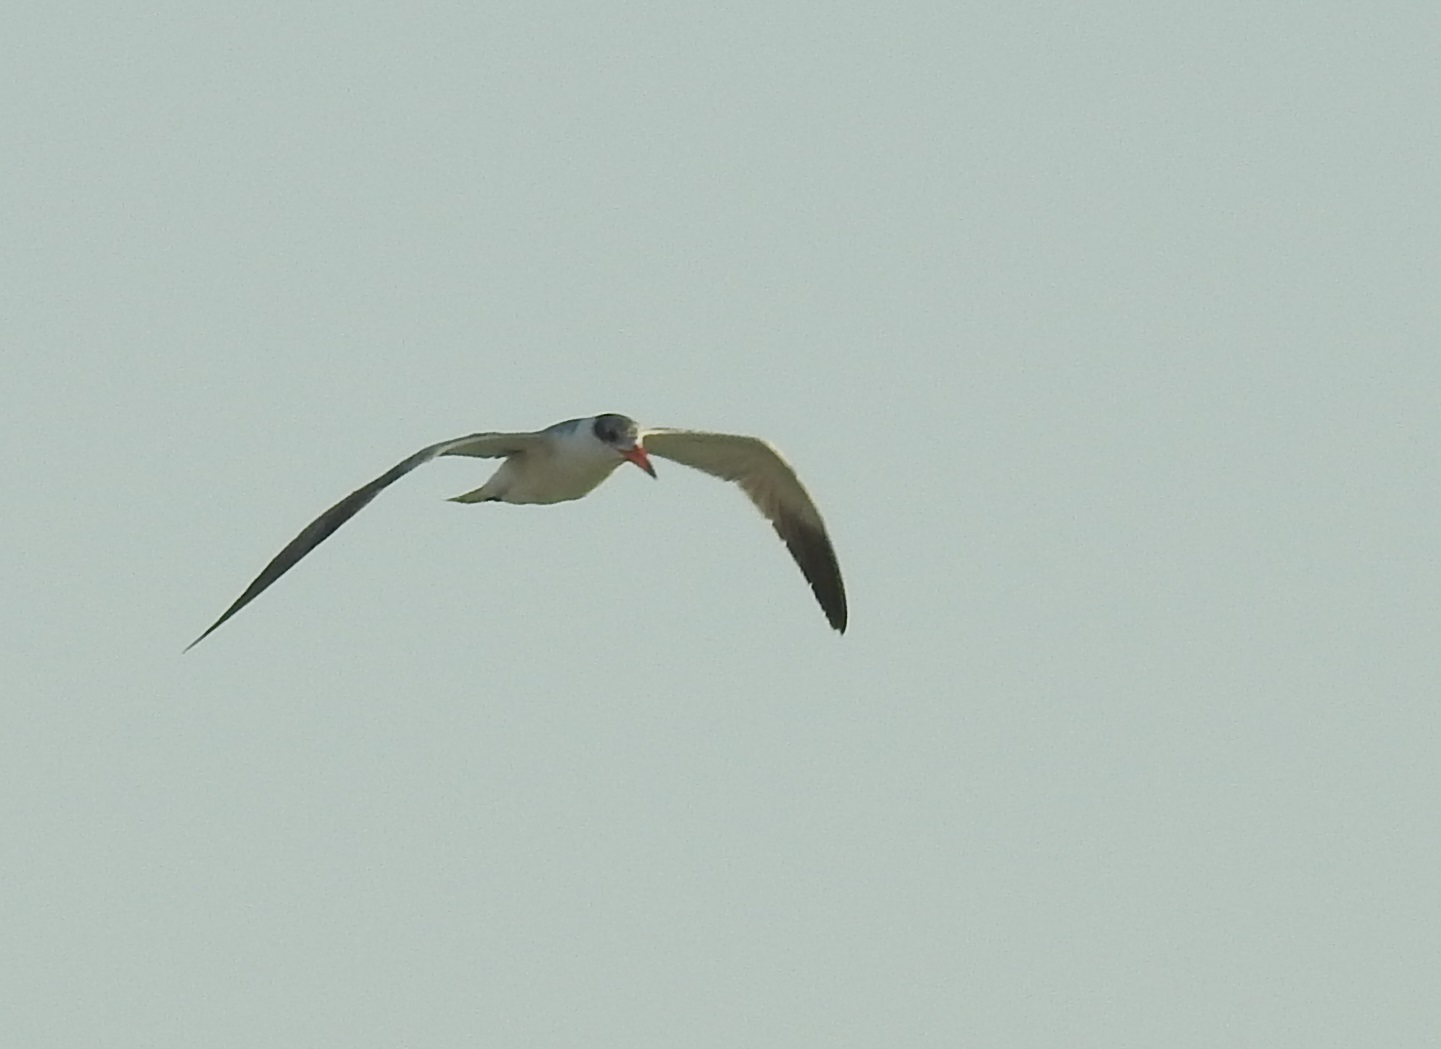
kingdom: Animalia
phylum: Chordata
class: Aves
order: Charadriiformes
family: Laridae
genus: Hydroprogne
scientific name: Hydroprogne caspia
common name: Caspian tern
